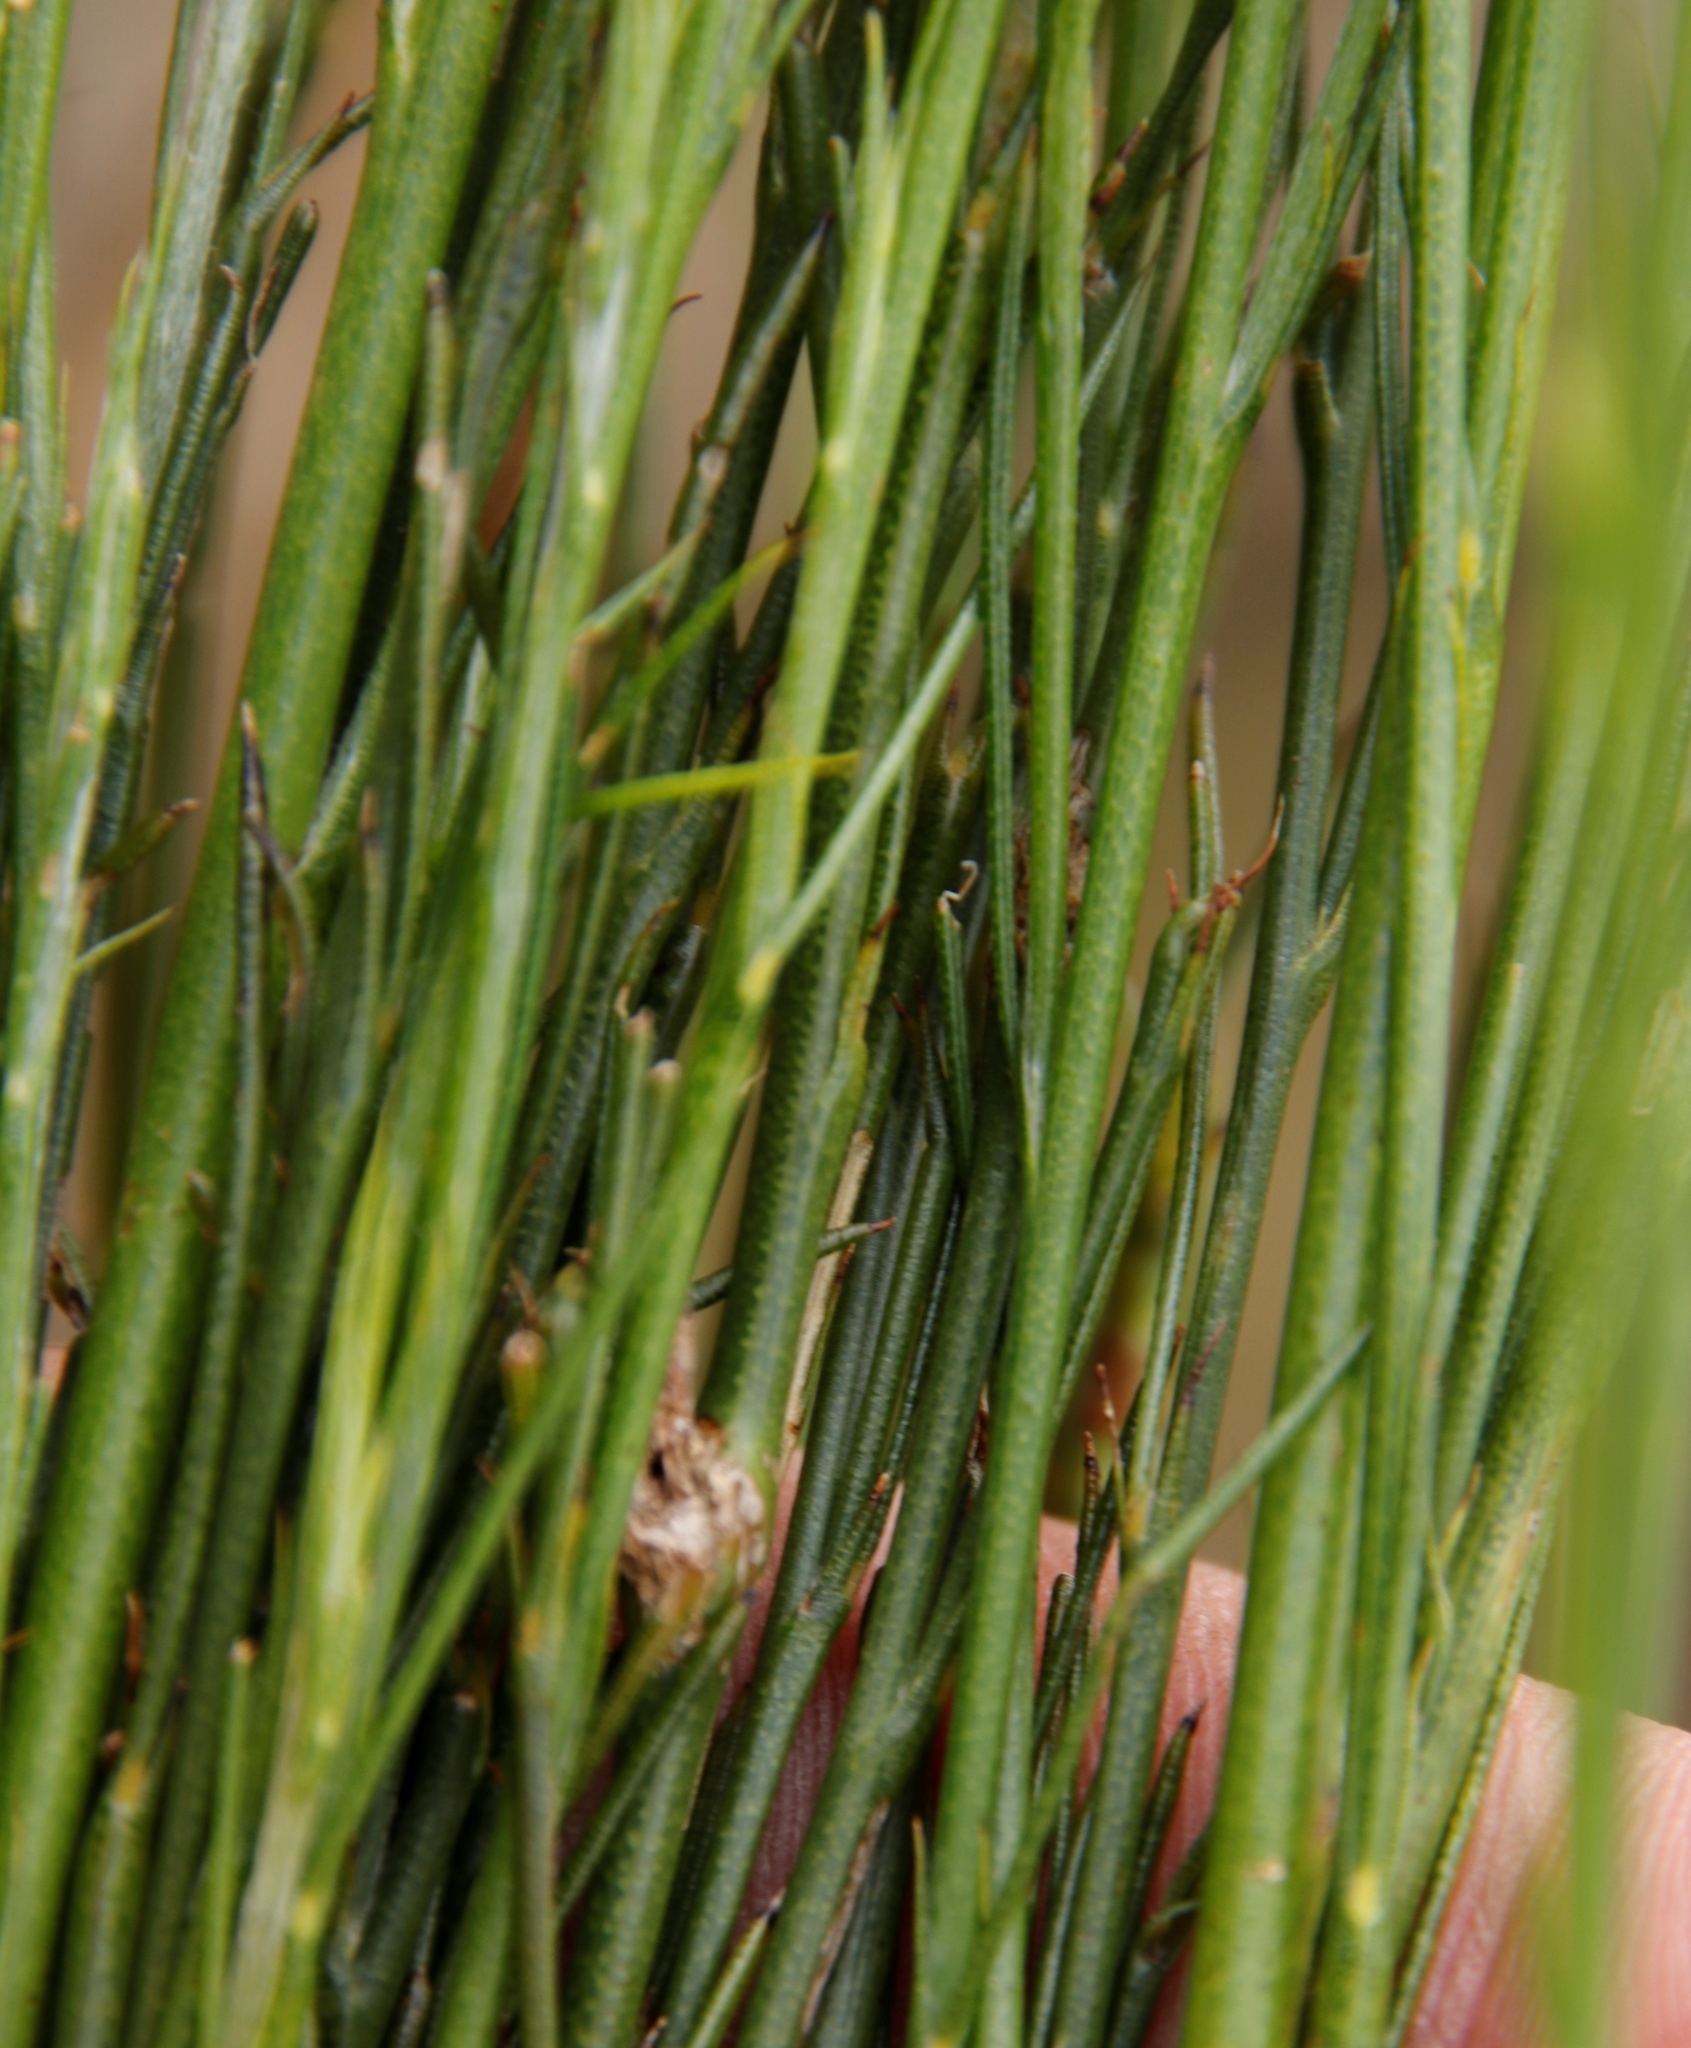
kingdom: Plantae
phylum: Tracheophyta
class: Magnoliopsida
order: Fabales
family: Fabaceae
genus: Psoralea
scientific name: Psoralea usitata
